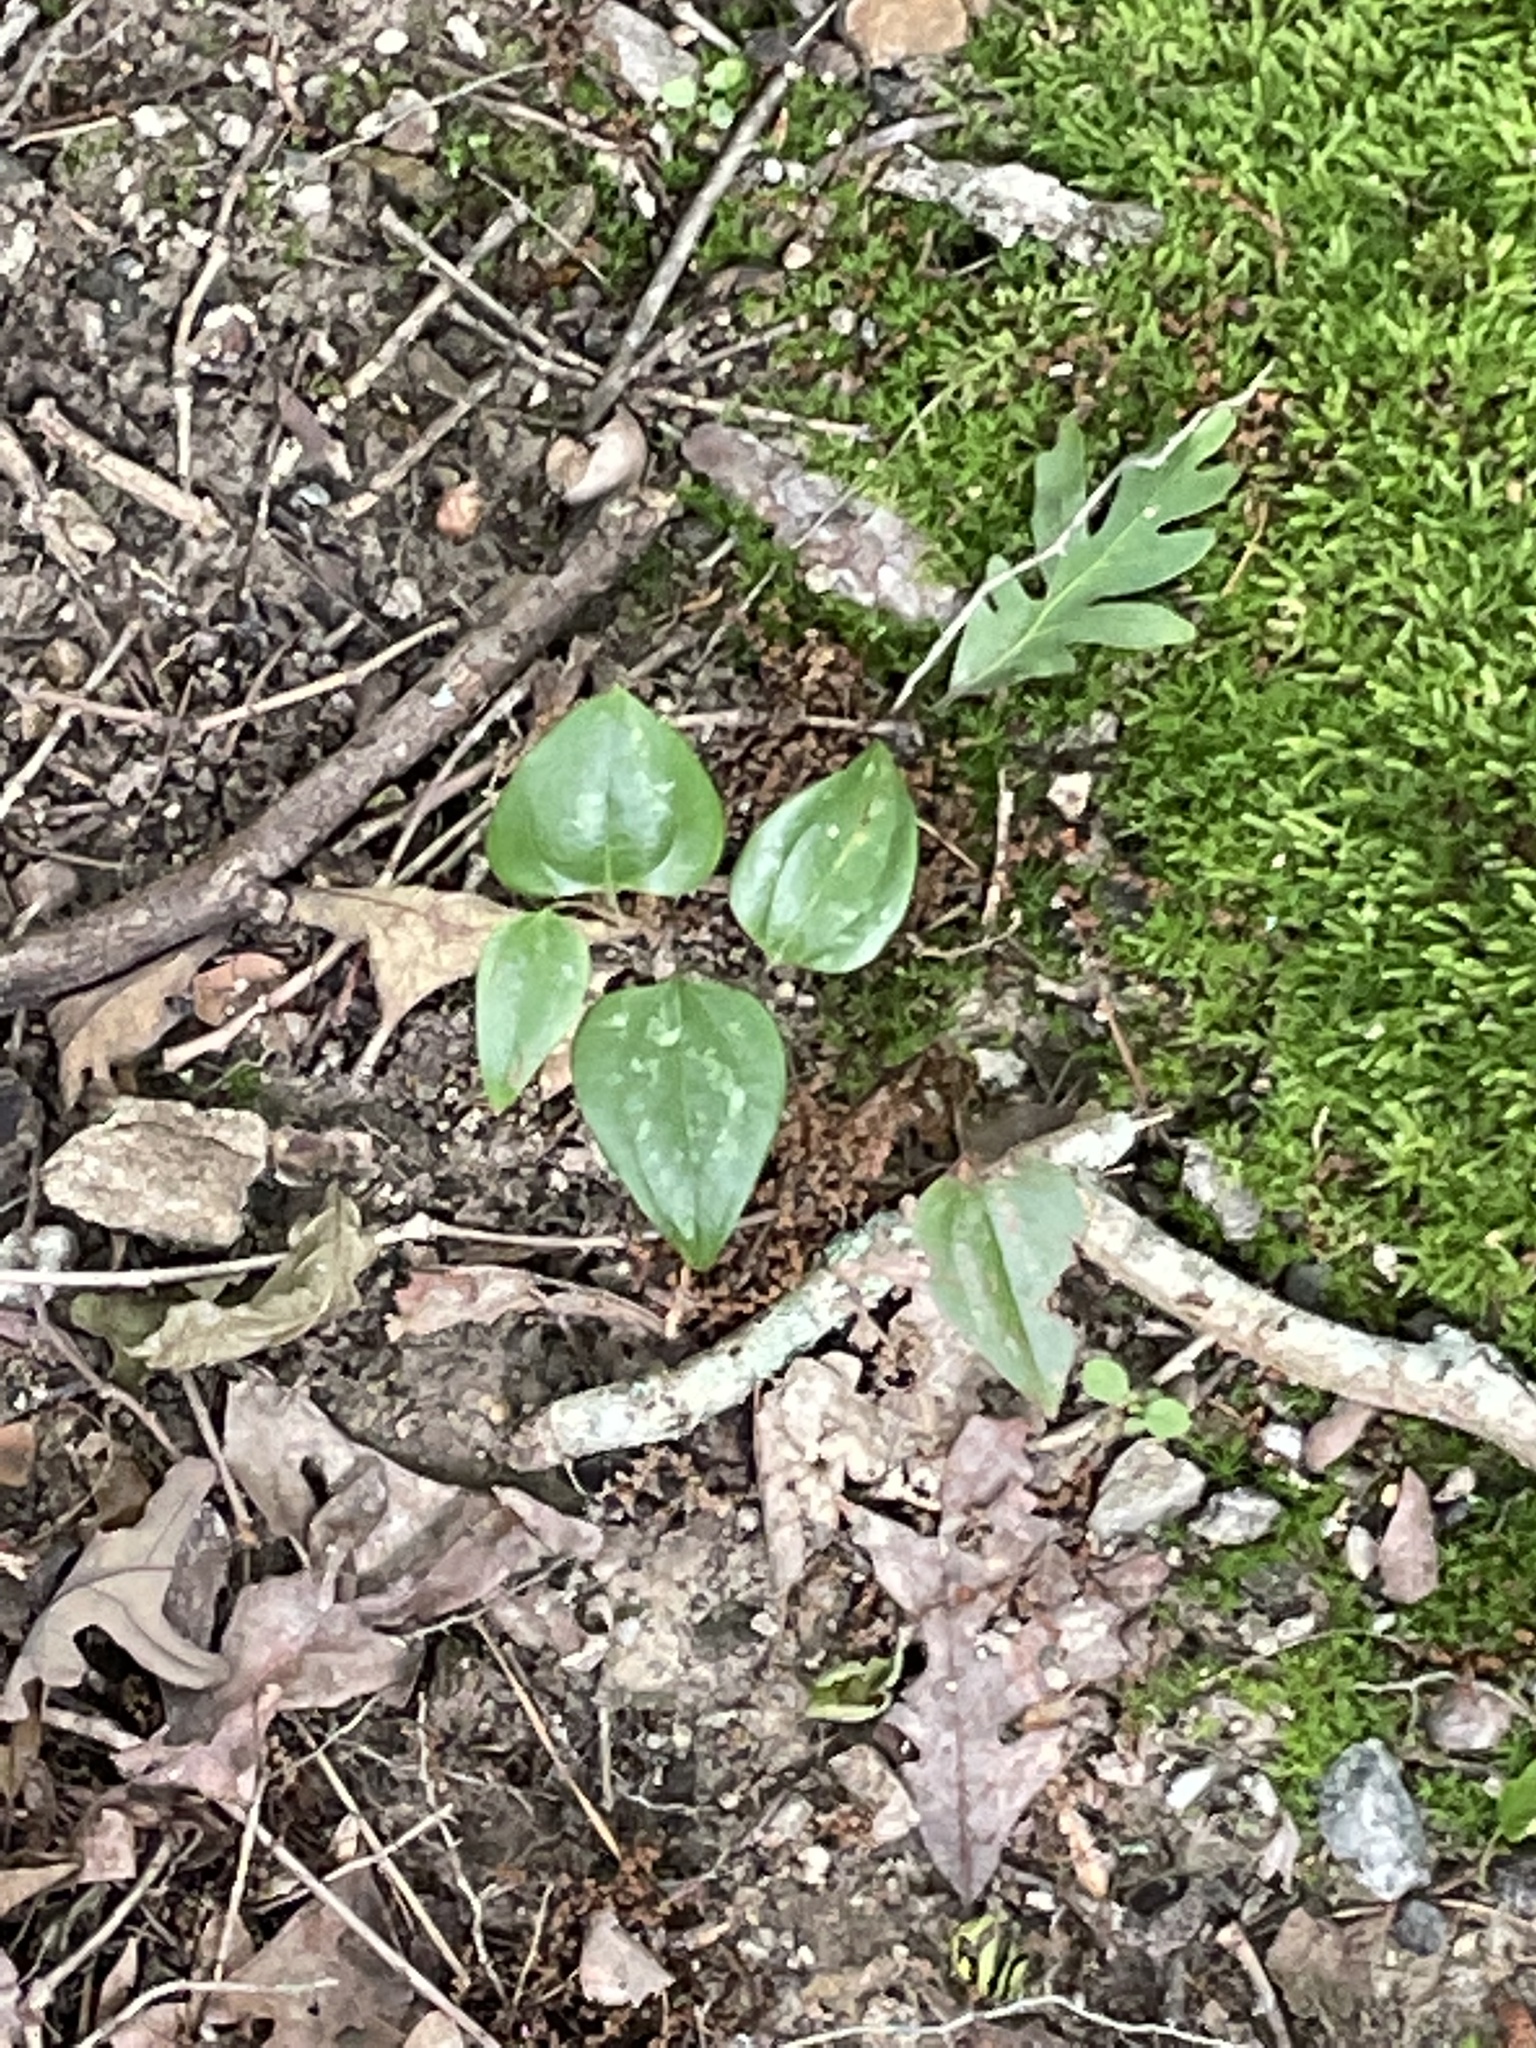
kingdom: Plantae
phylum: Tracheophyta
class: Liliopsida
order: Liliales
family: Smilacaceae
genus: Smilax
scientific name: Smilax glauca
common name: Cat greenbrier
